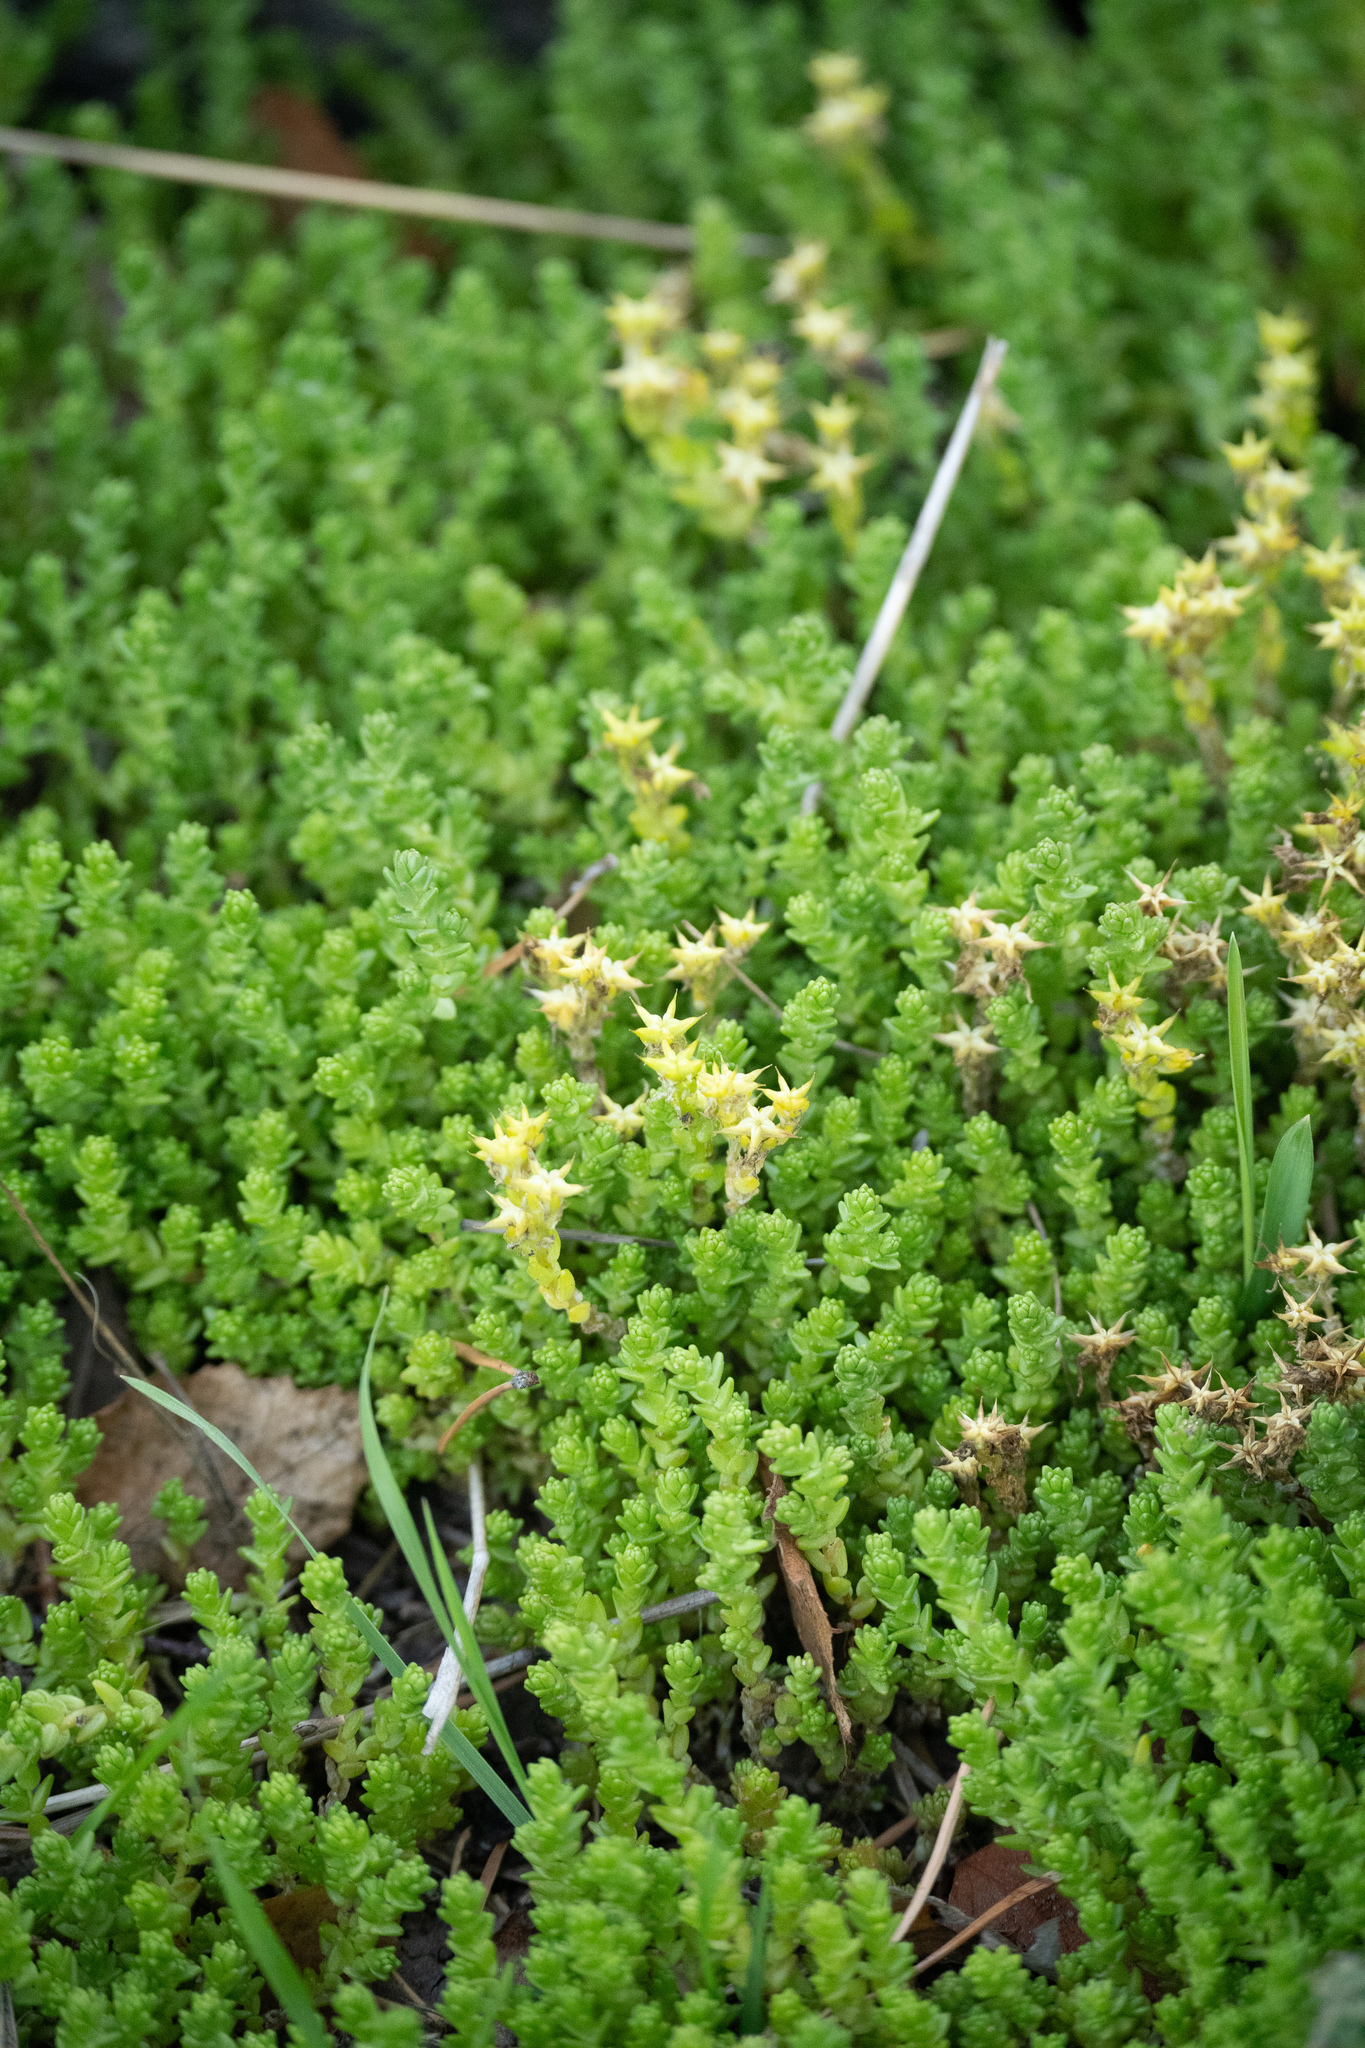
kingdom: Plantae
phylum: Tracheophyta
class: Magnoliopsida
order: Saxifragales
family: Crassulaceae
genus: Sedum
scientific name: Sedum acre
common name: Biting stonecrop
